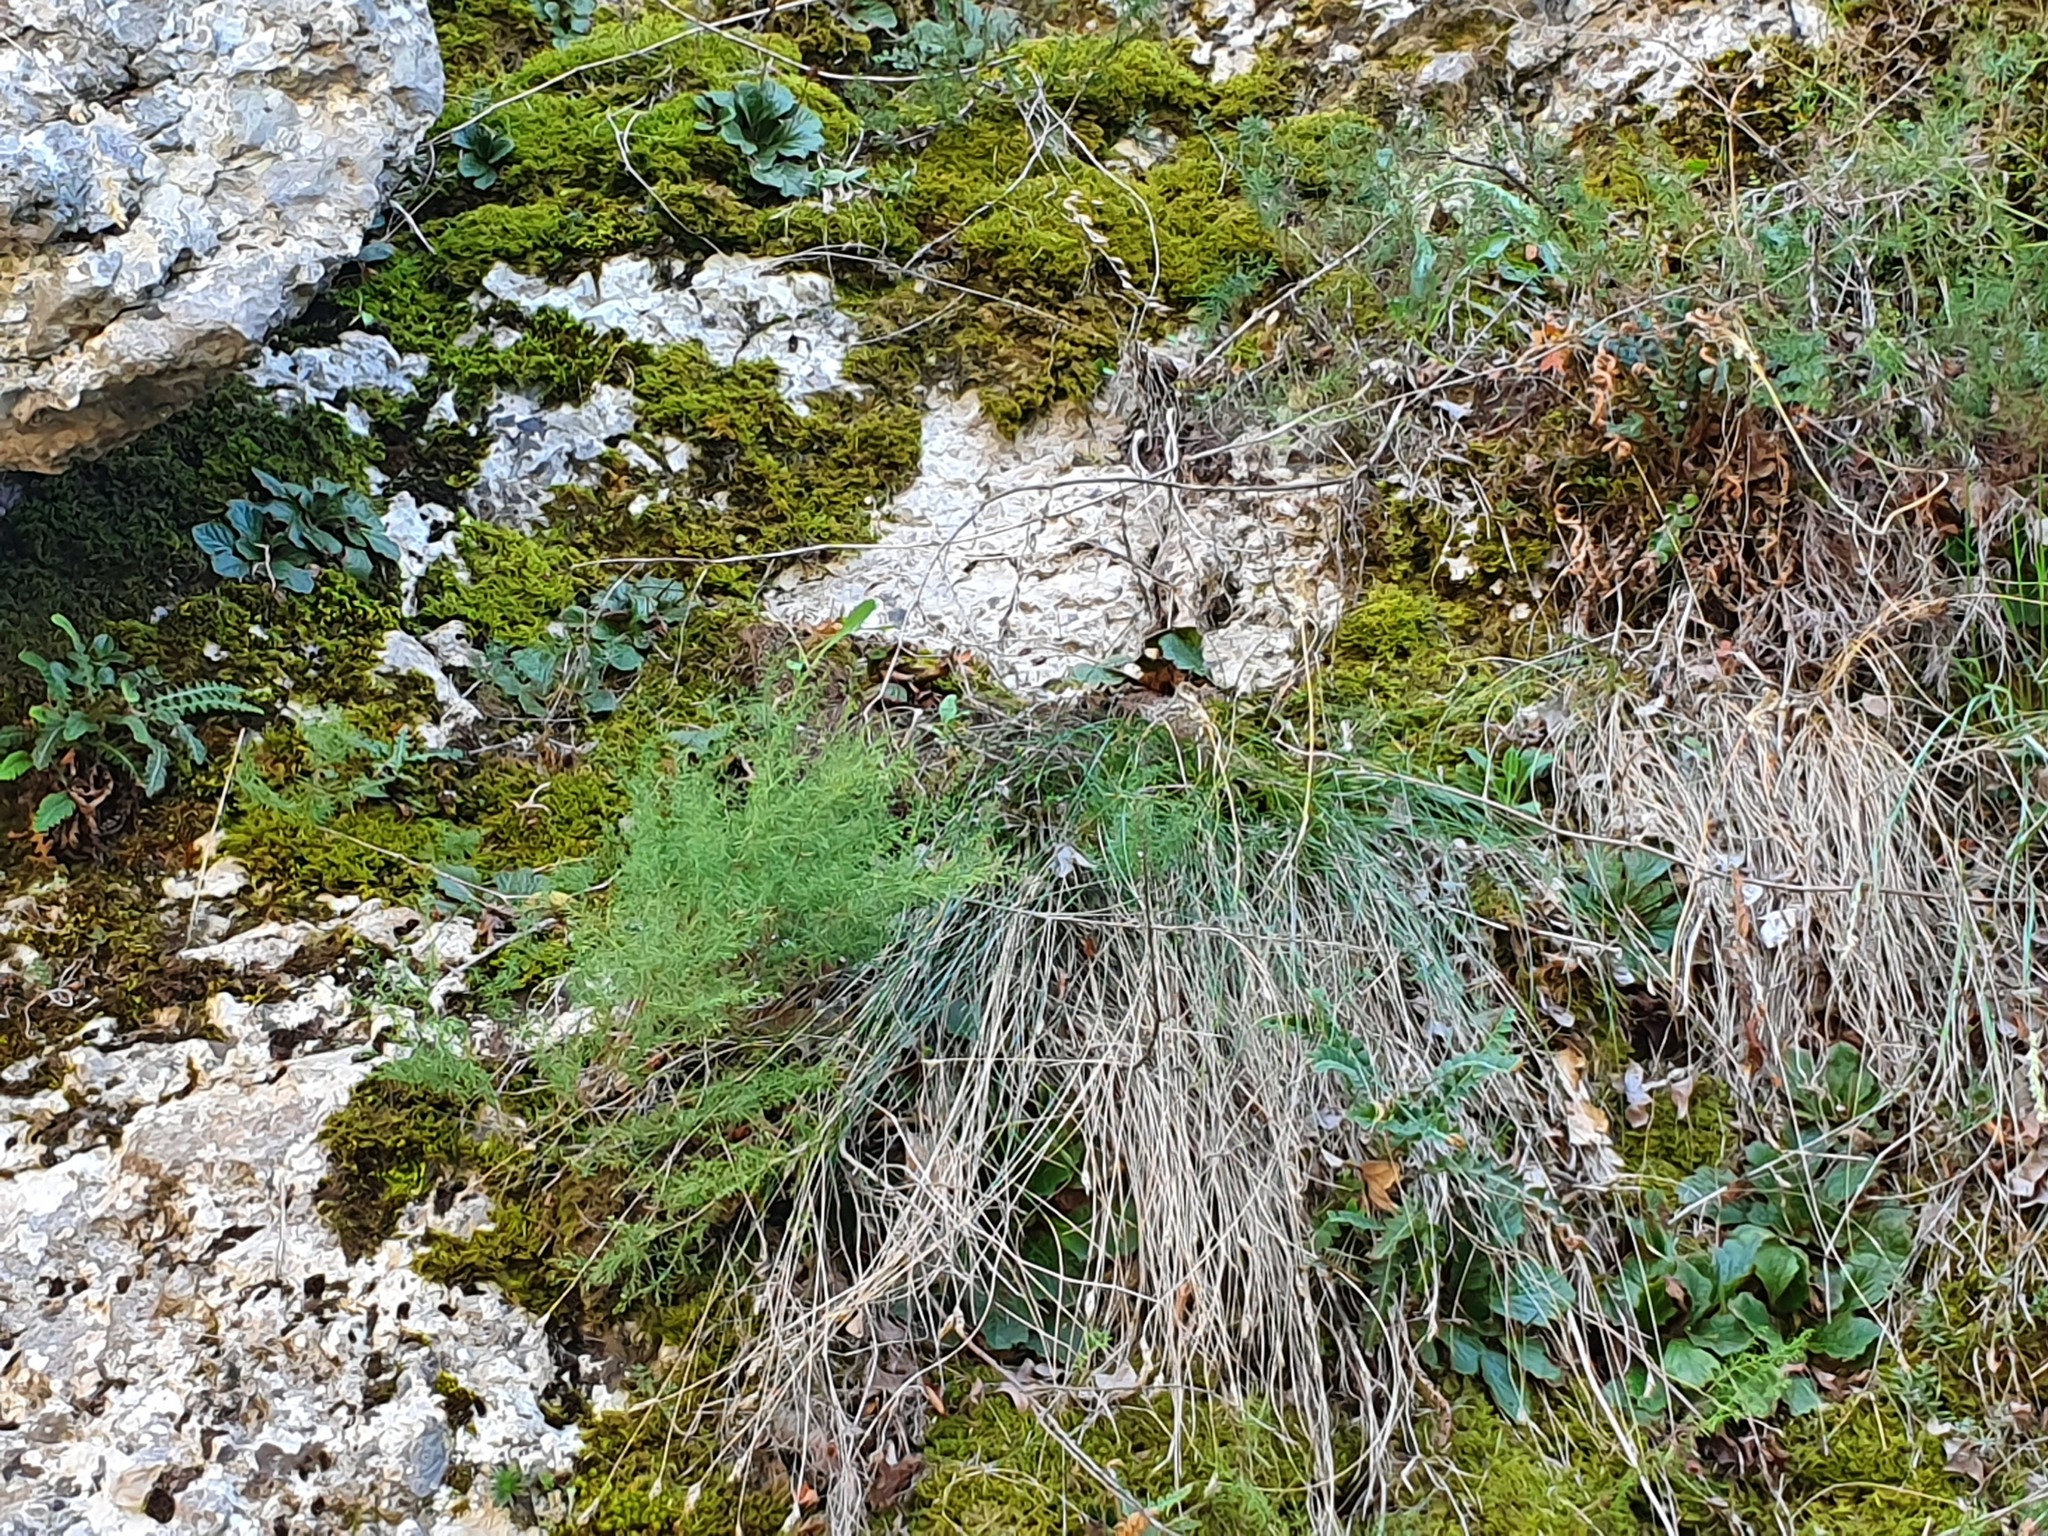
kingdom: Plantae
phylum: Tracheophyta
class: Magnoliopsida
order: Lamiales
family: Gesneriaceae
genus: Ramonda
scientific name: Ramonda serbica
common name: Serbian phoenix flower
